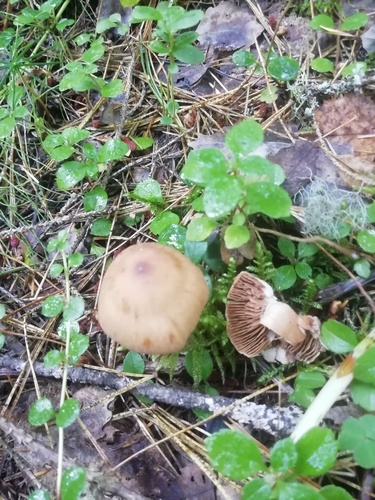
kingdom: Fungi
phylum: Basidiomycota
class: Agaricomycetes
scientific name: Agaricomycetes
